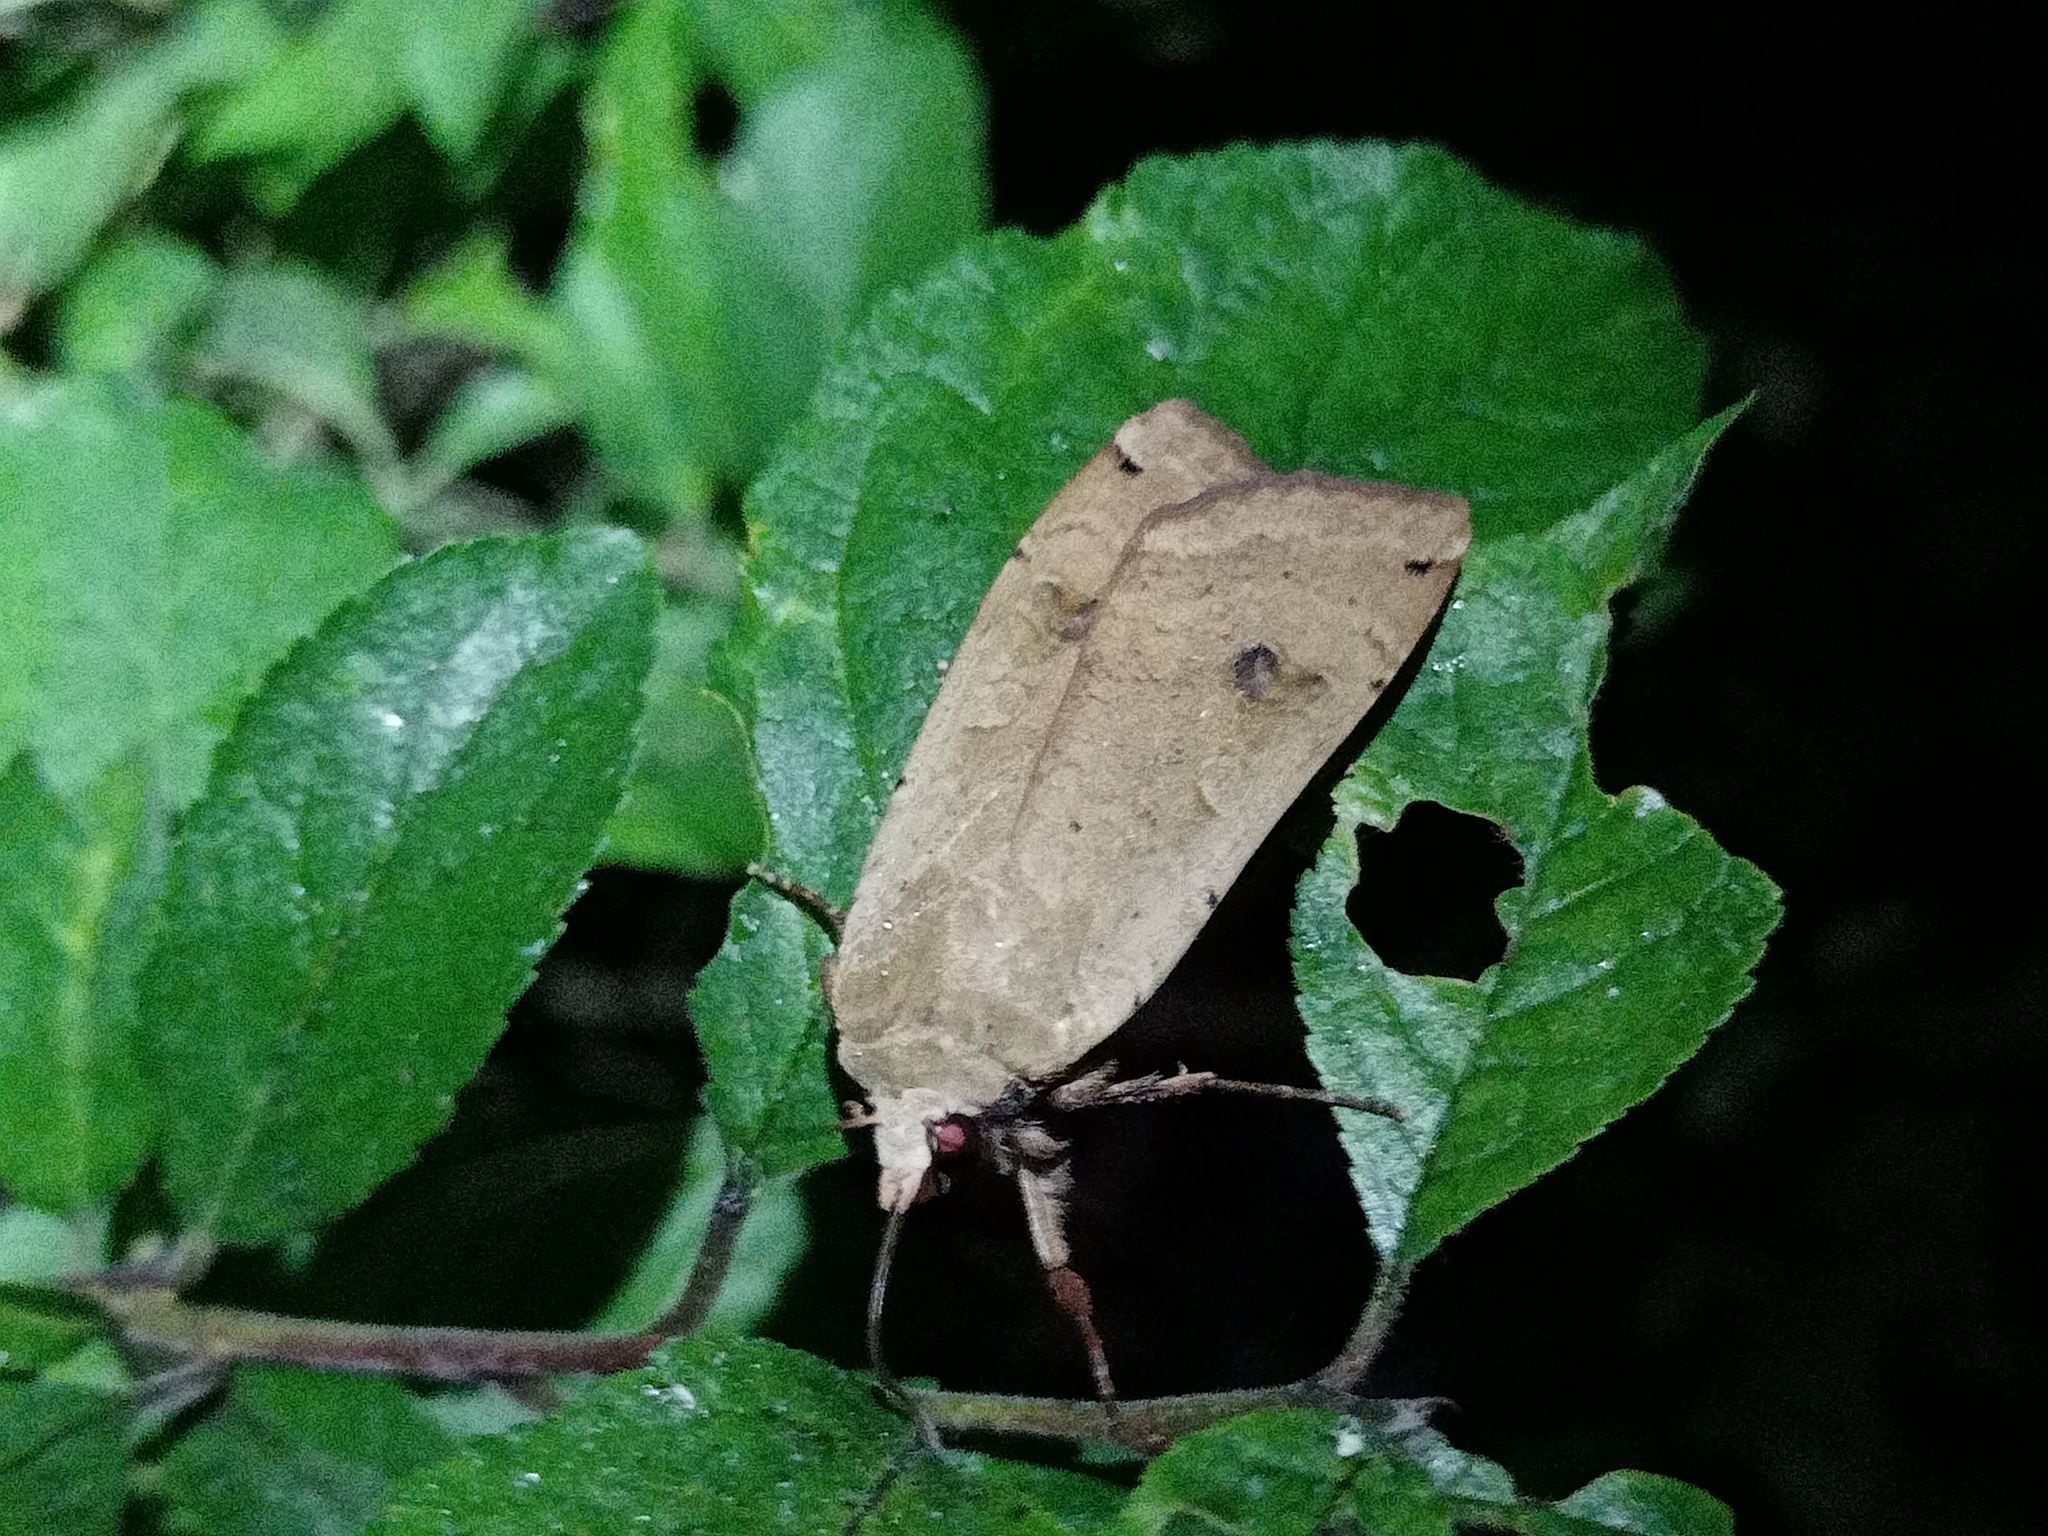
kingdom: Animalia
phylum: Arthropoda
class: Insecta
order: Lepidoptera
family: Noctuidae
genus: Noctua
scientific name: Noctua pronuba
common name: Large yellow underwing
